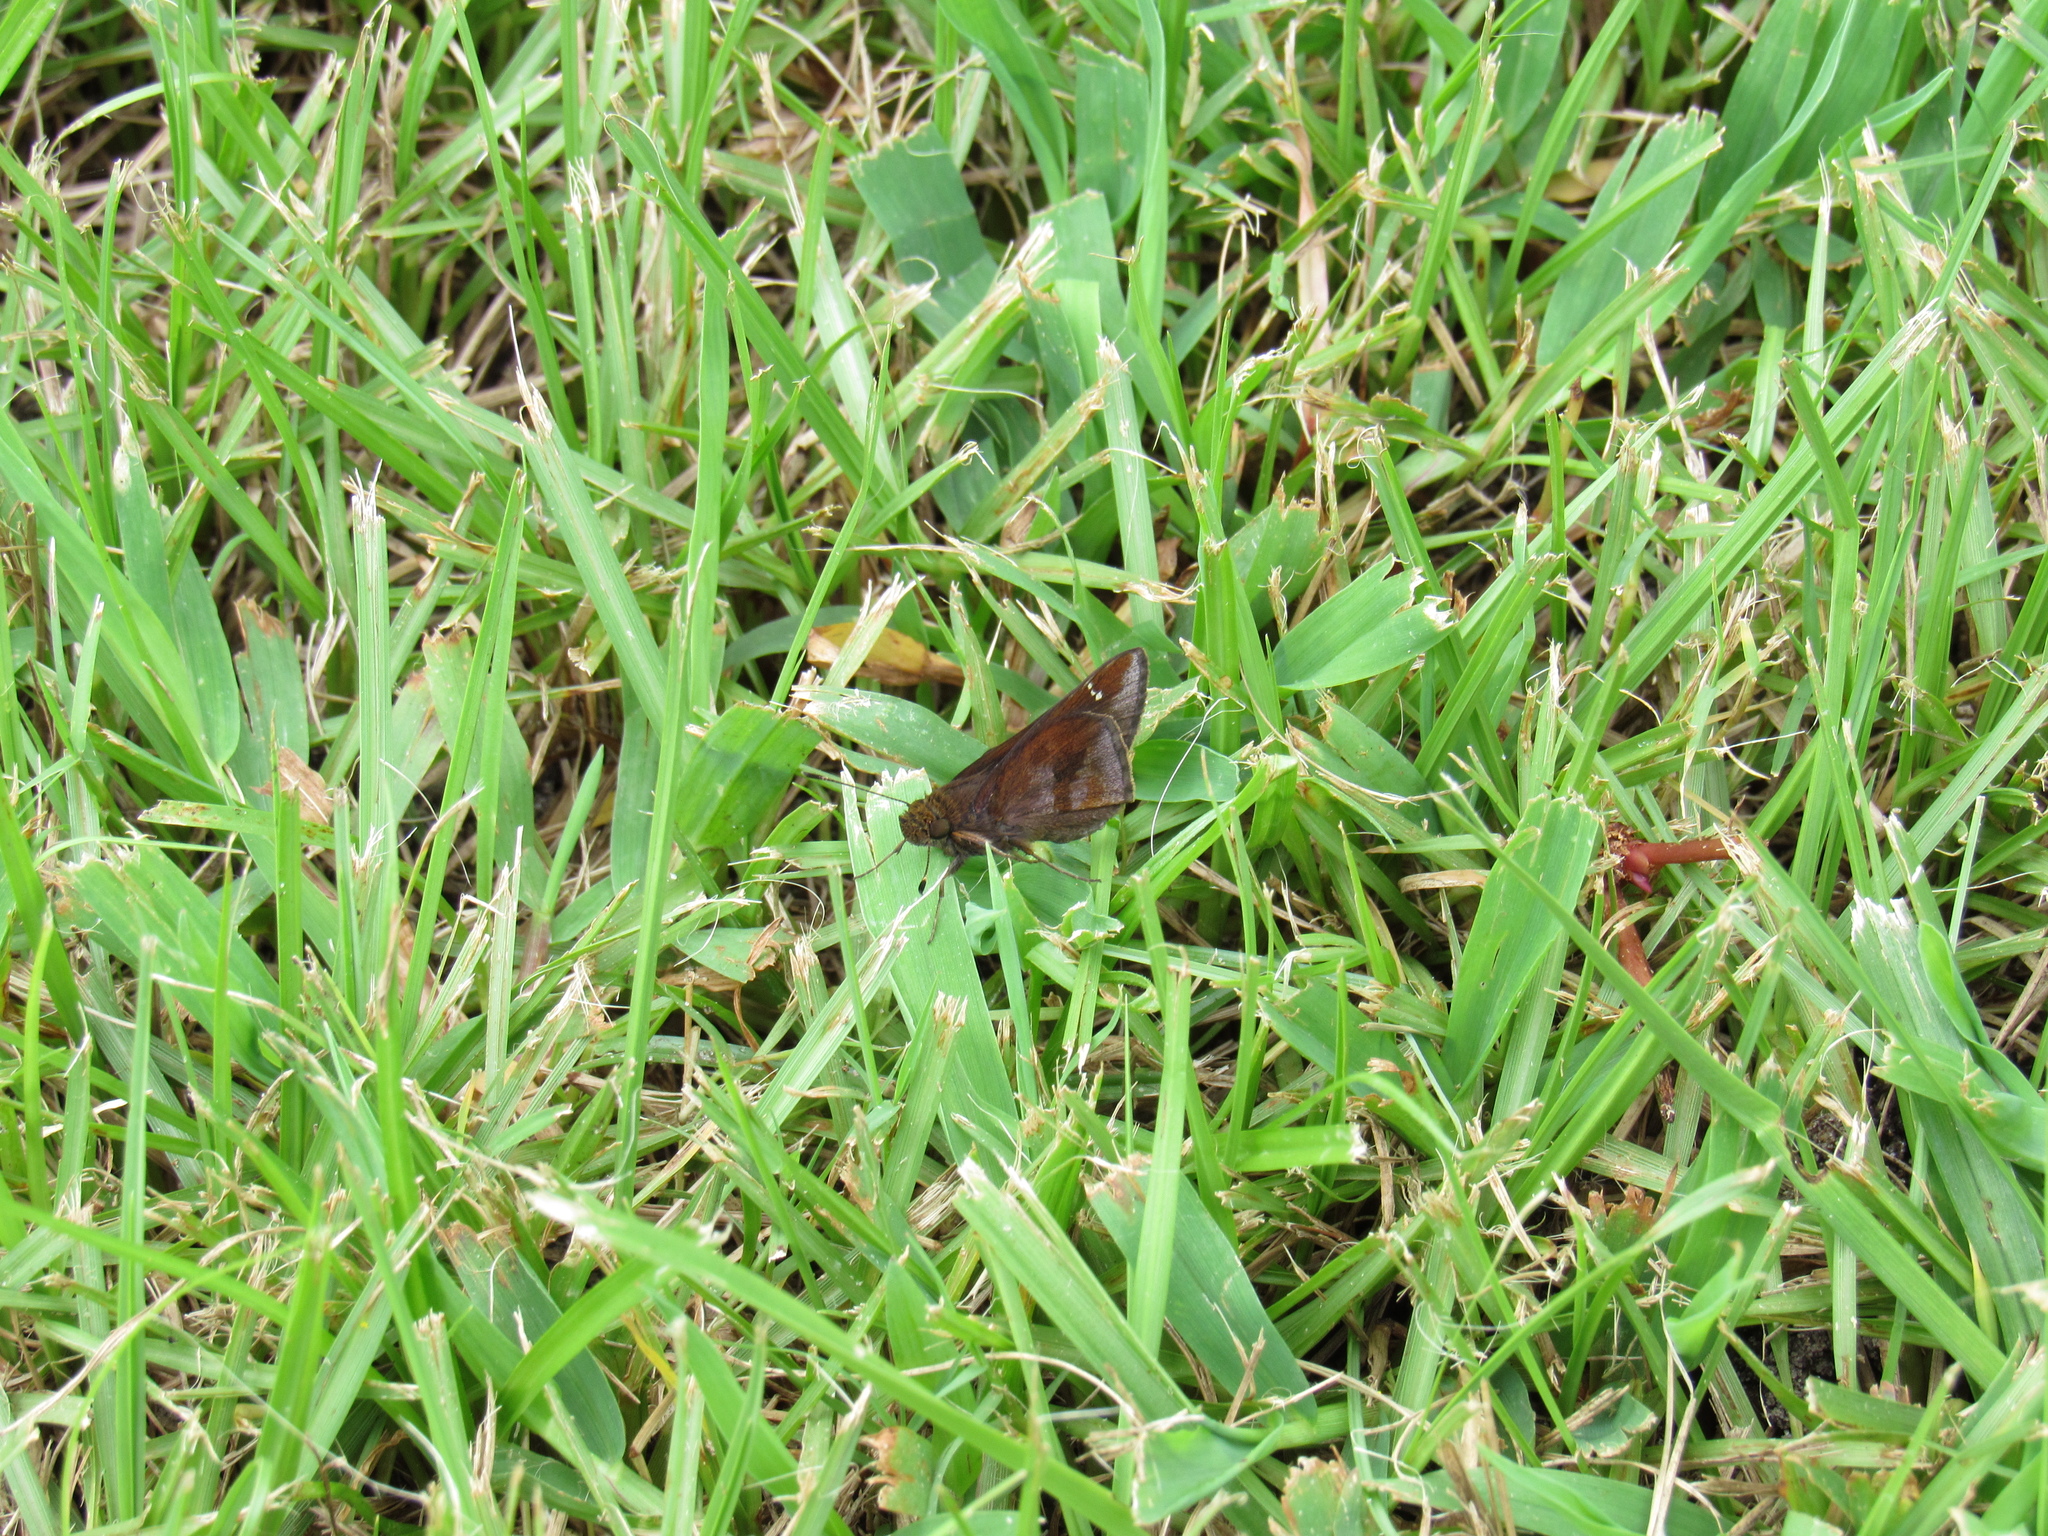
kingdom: Animalia
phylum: Arthropoda
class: Insecta
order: Lepidoptera
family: Hesperiidae
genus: Lerema
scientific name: Lerema accius
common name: Clouded skipper
